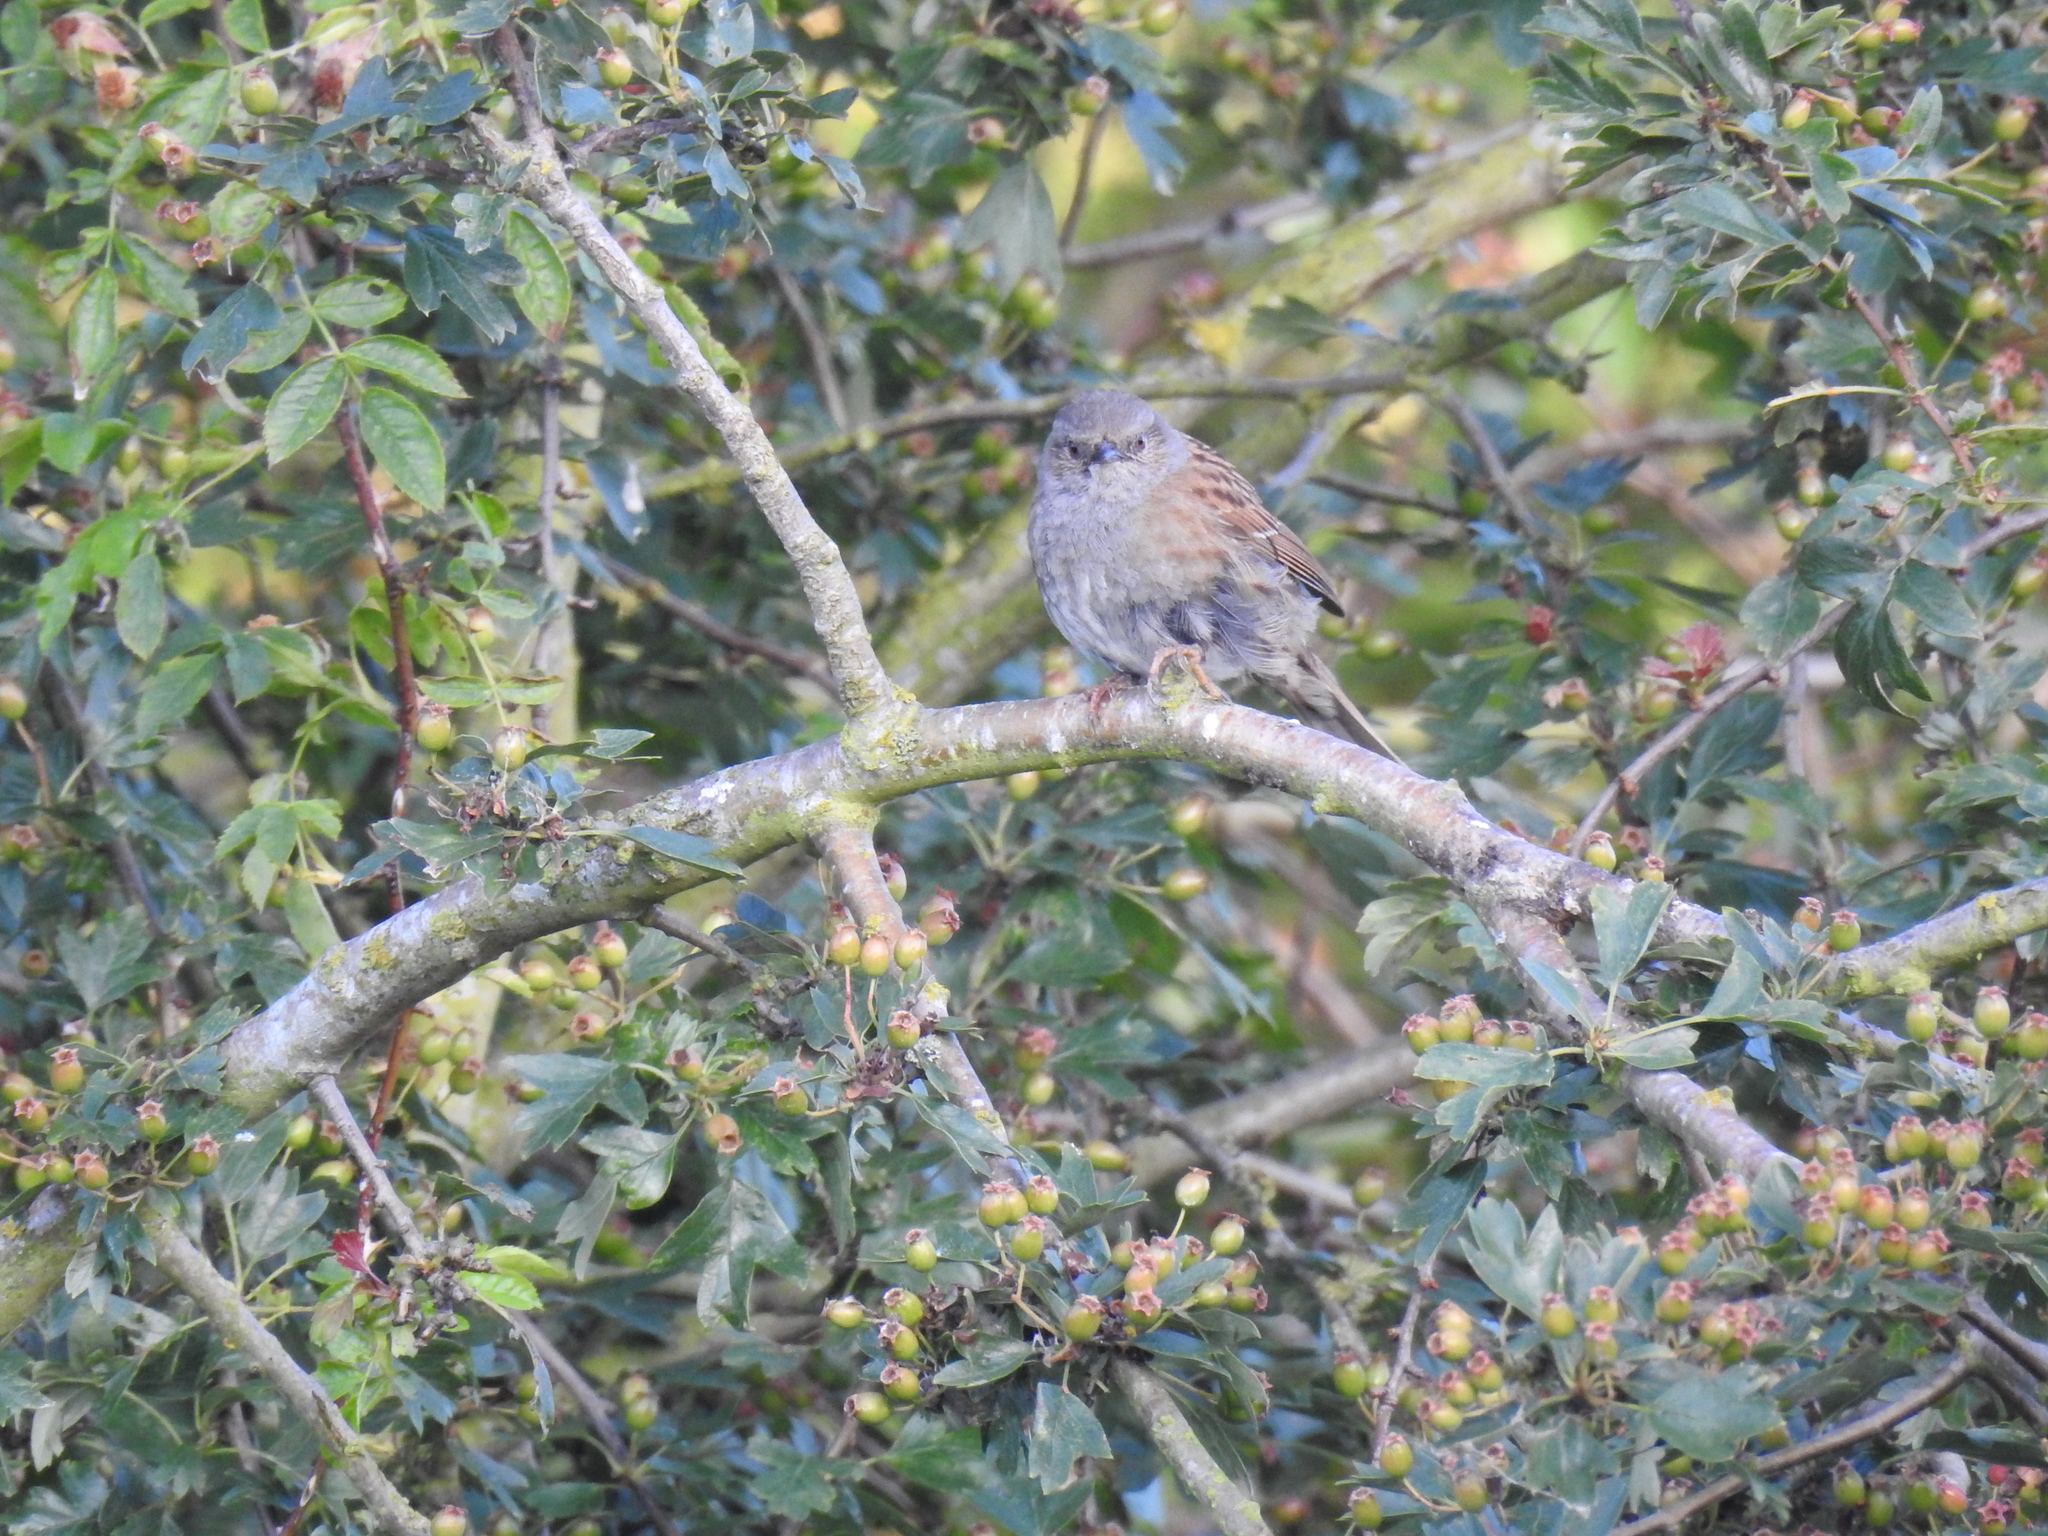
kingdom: Animalia
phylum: Chordata
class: Aves
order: Passeriformes
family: Prunellidae
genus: Prunella
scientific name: Prunella modularis
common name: Dunnock
